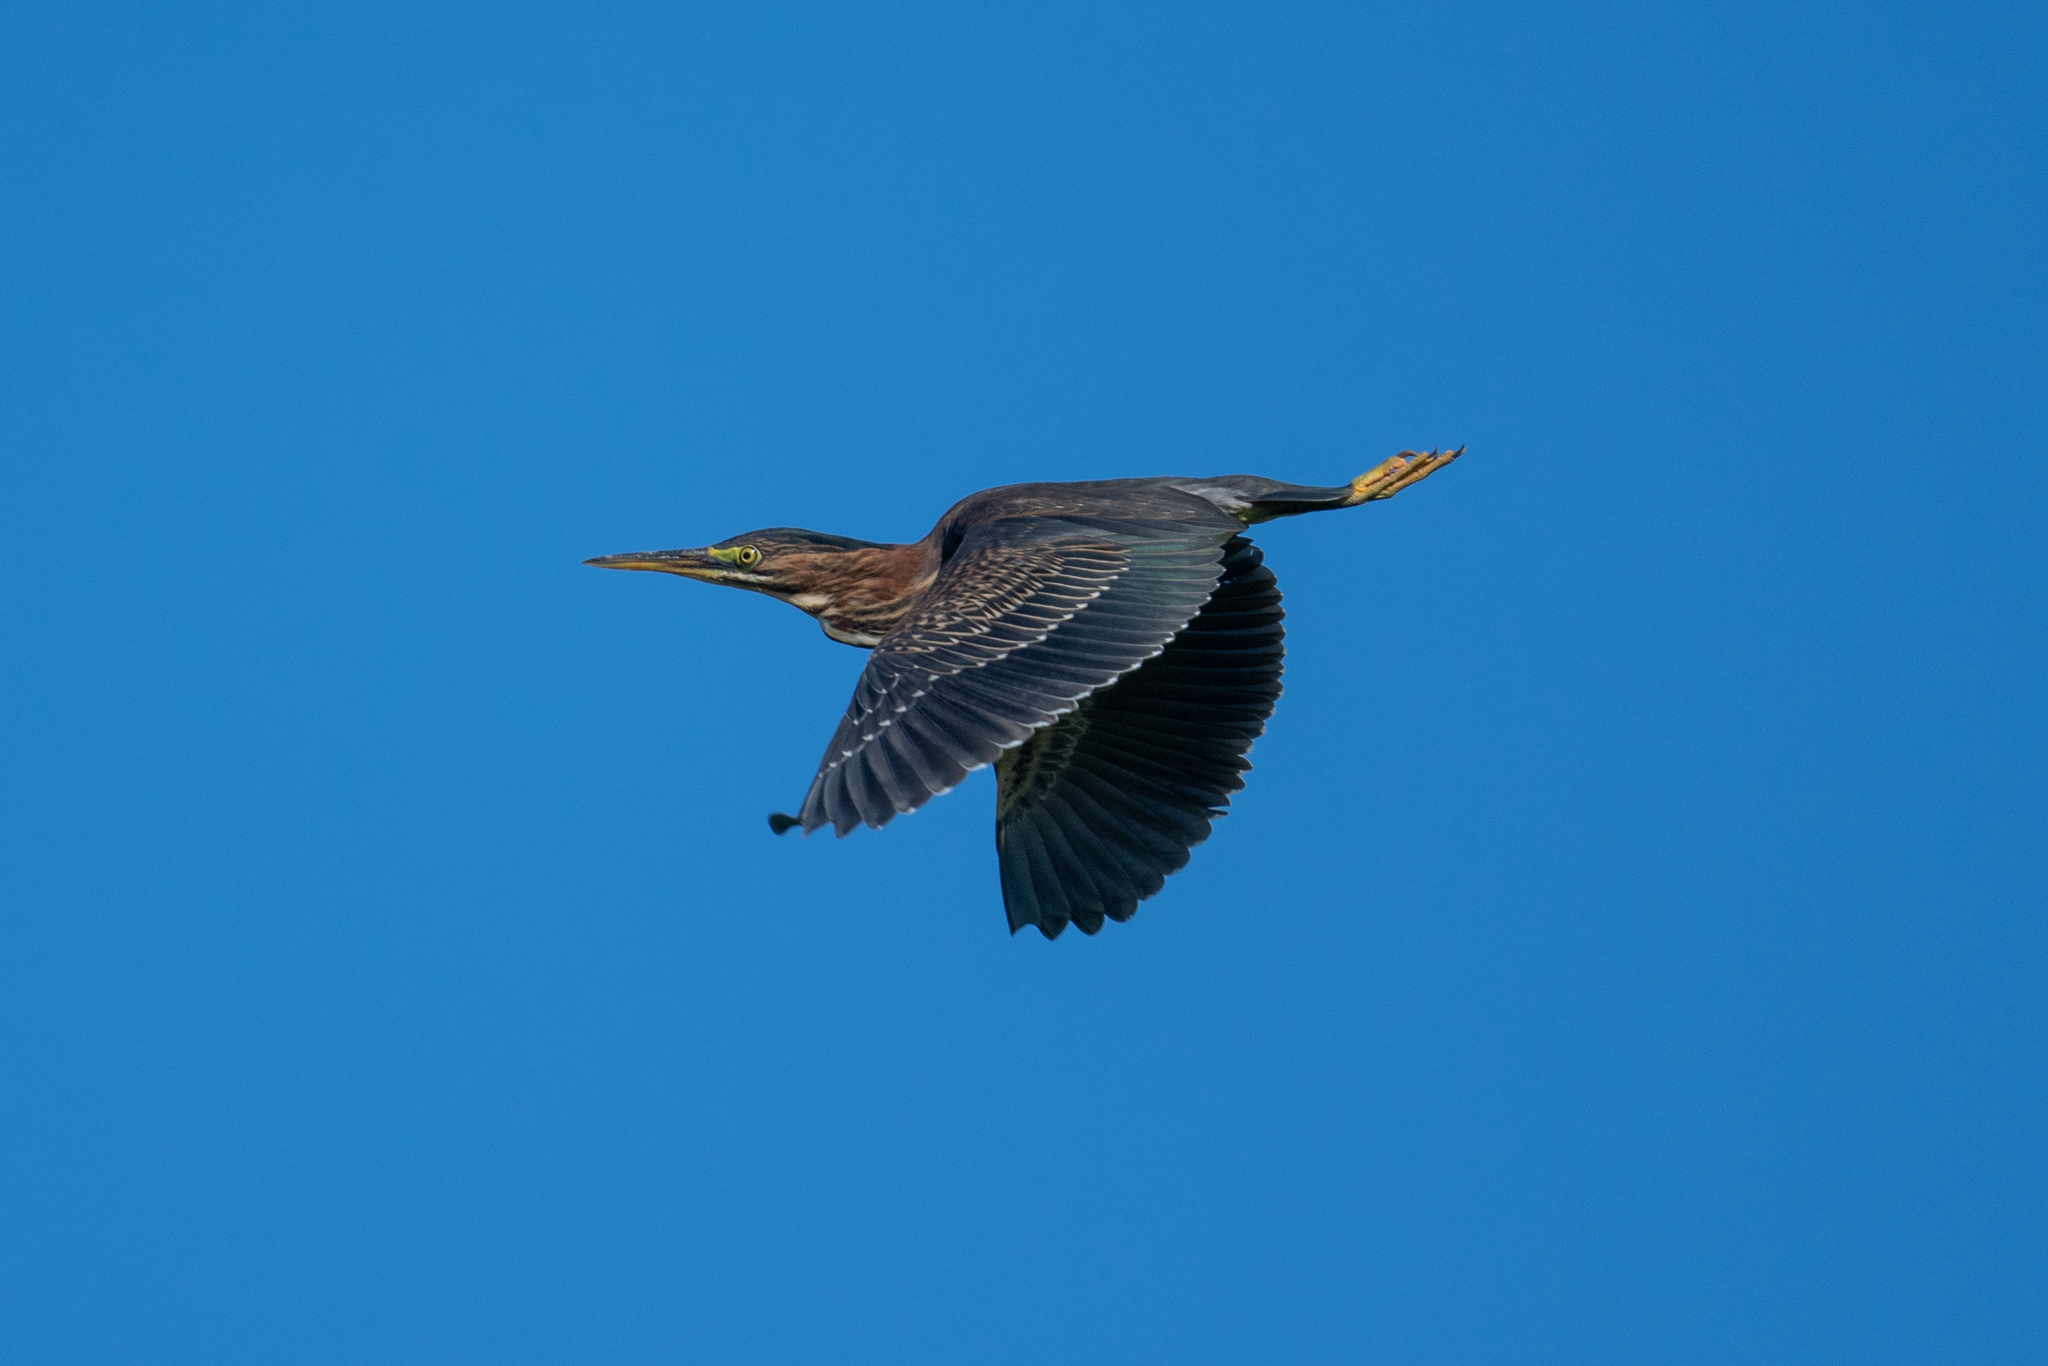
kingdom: Animalia
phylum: Chordata
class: Aves
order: Pelecaniformes
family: Ardeidae
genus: Butorides
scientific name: Butorides virescens
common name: Green heron
